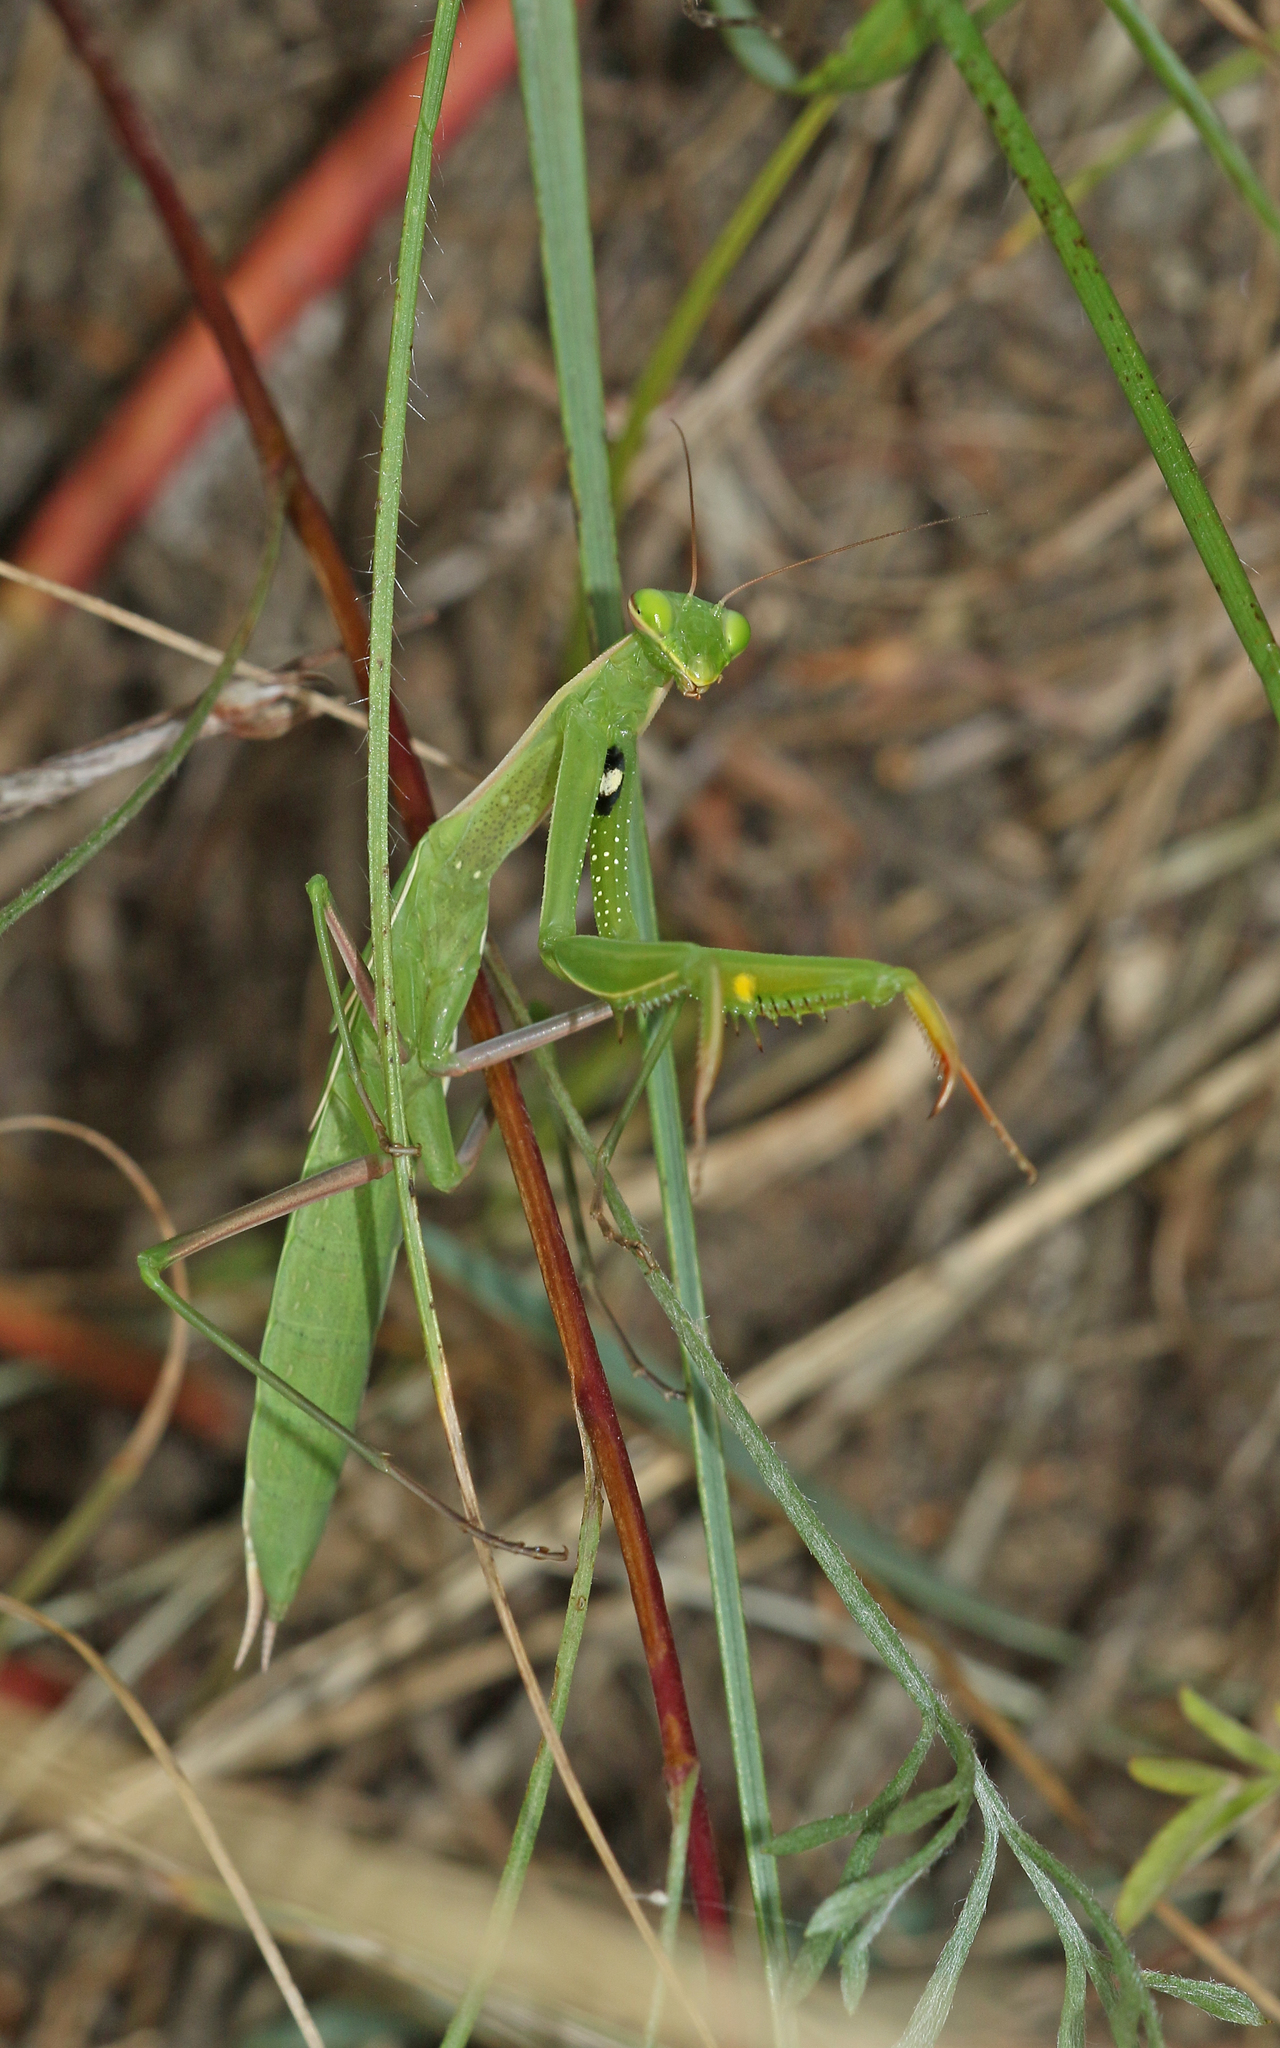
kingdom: Animalia
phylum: Arthropoda
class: Insecta
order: Mantodea
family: Mantidae
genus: Mantis
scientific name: Mantis religiosa
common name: Praying mantis
